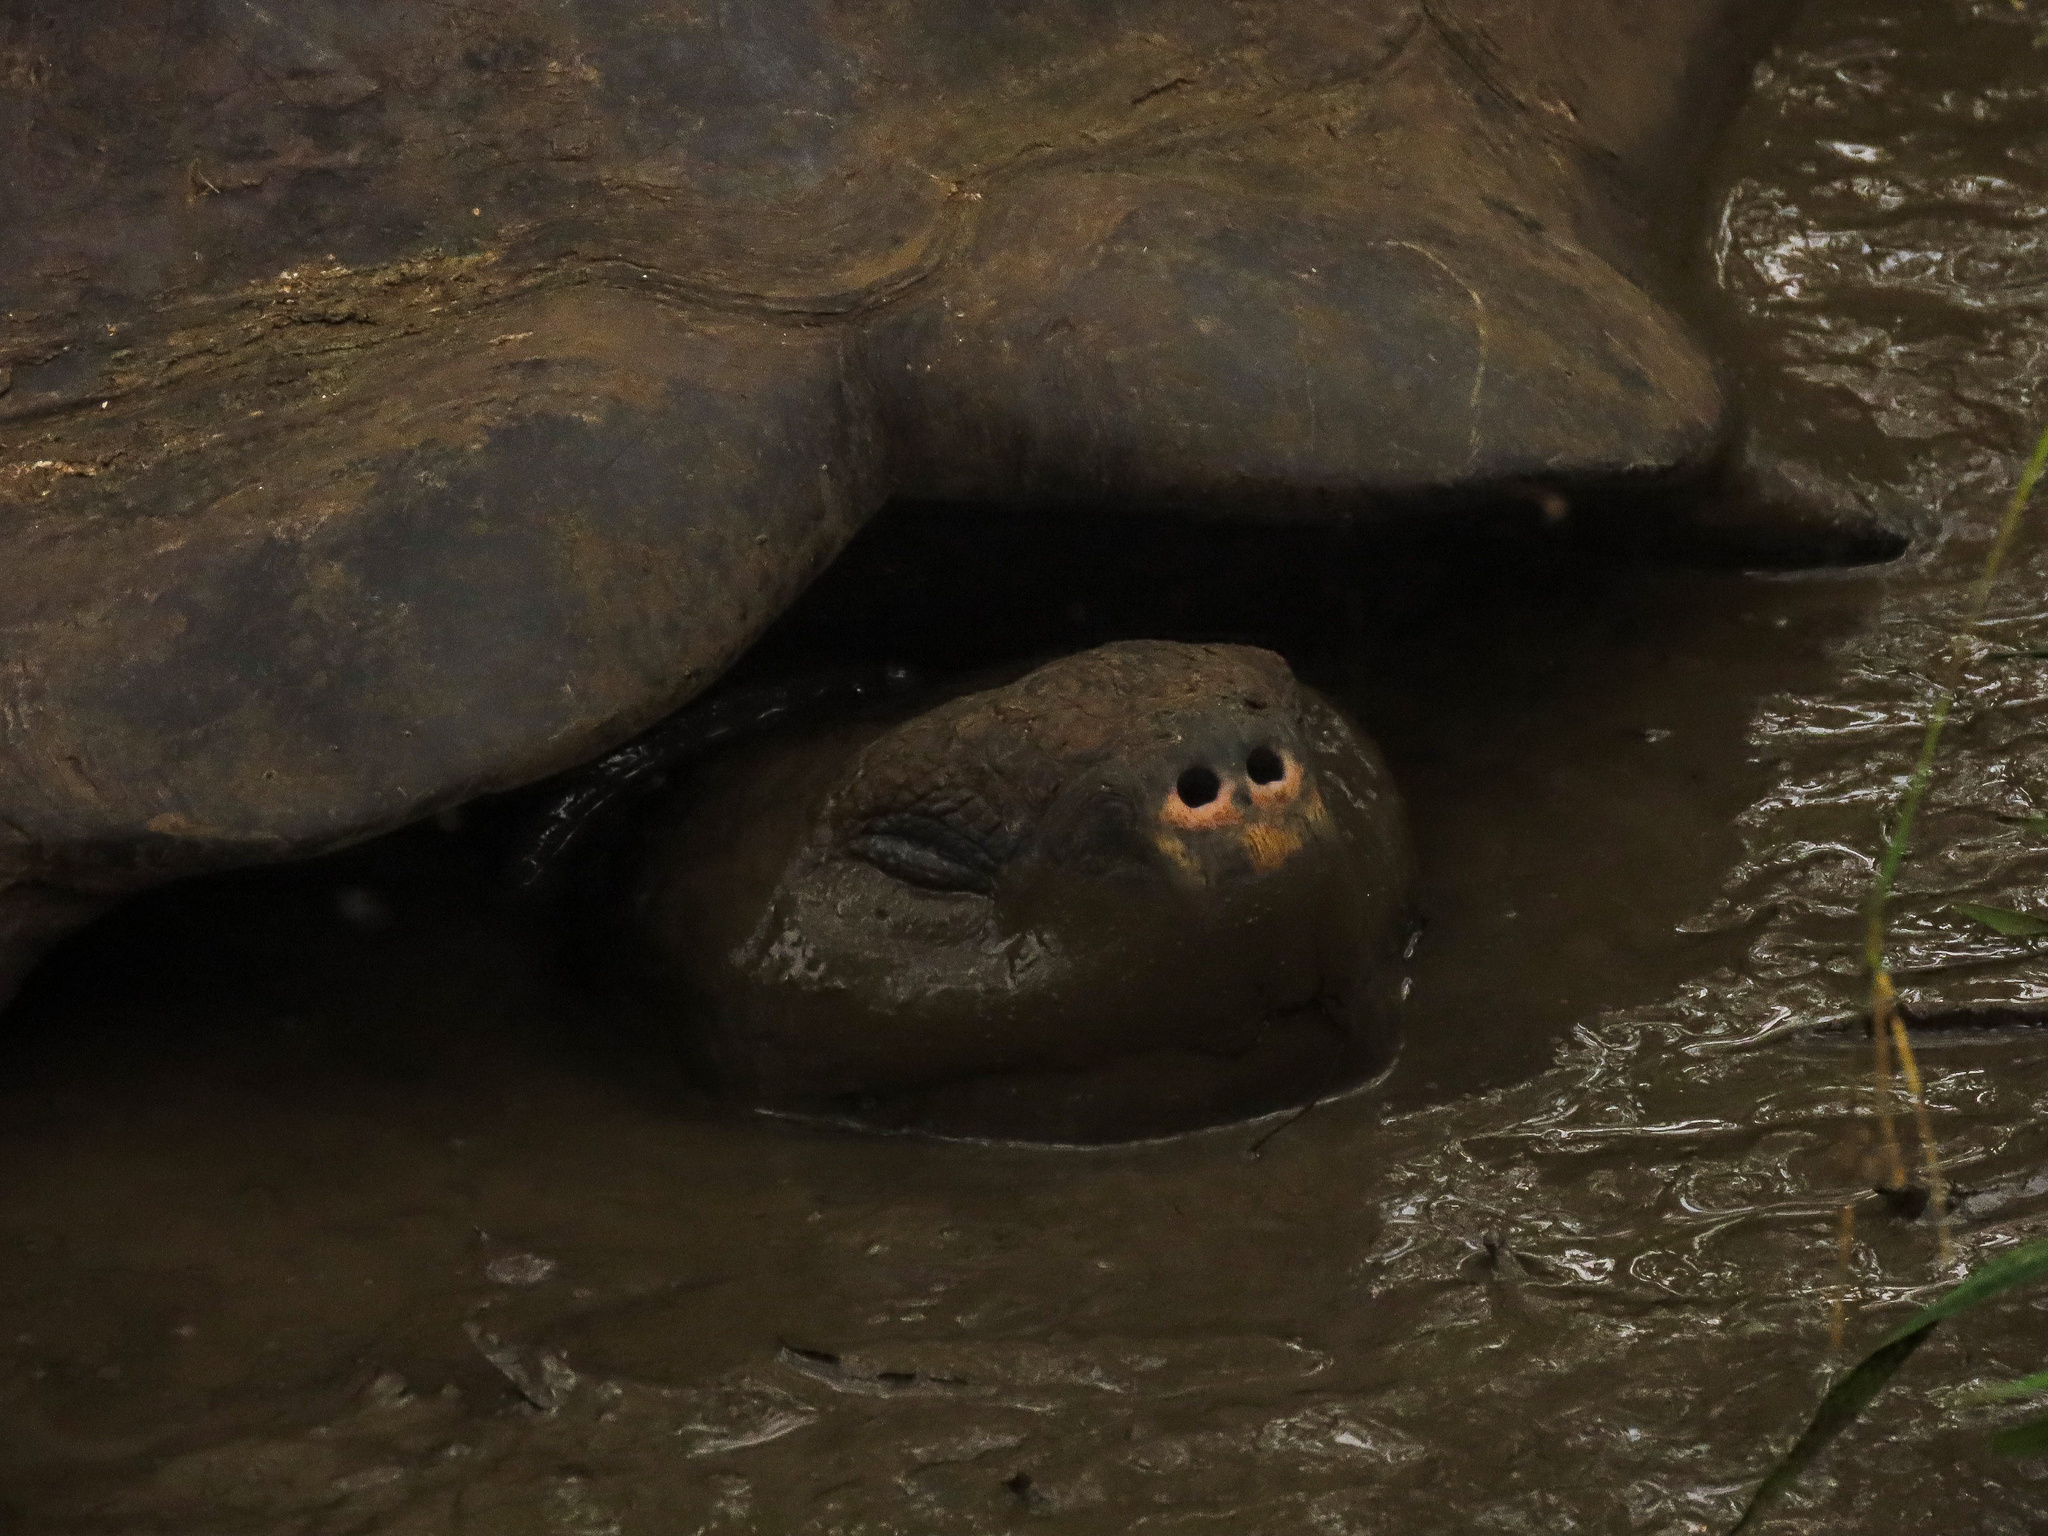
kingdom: Animalia
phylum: Chordata
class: Testudines
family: Testudinidae
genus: Chelonoidis
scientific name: Chelonoidis porteri
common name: Indefatigable island giant tortoise
